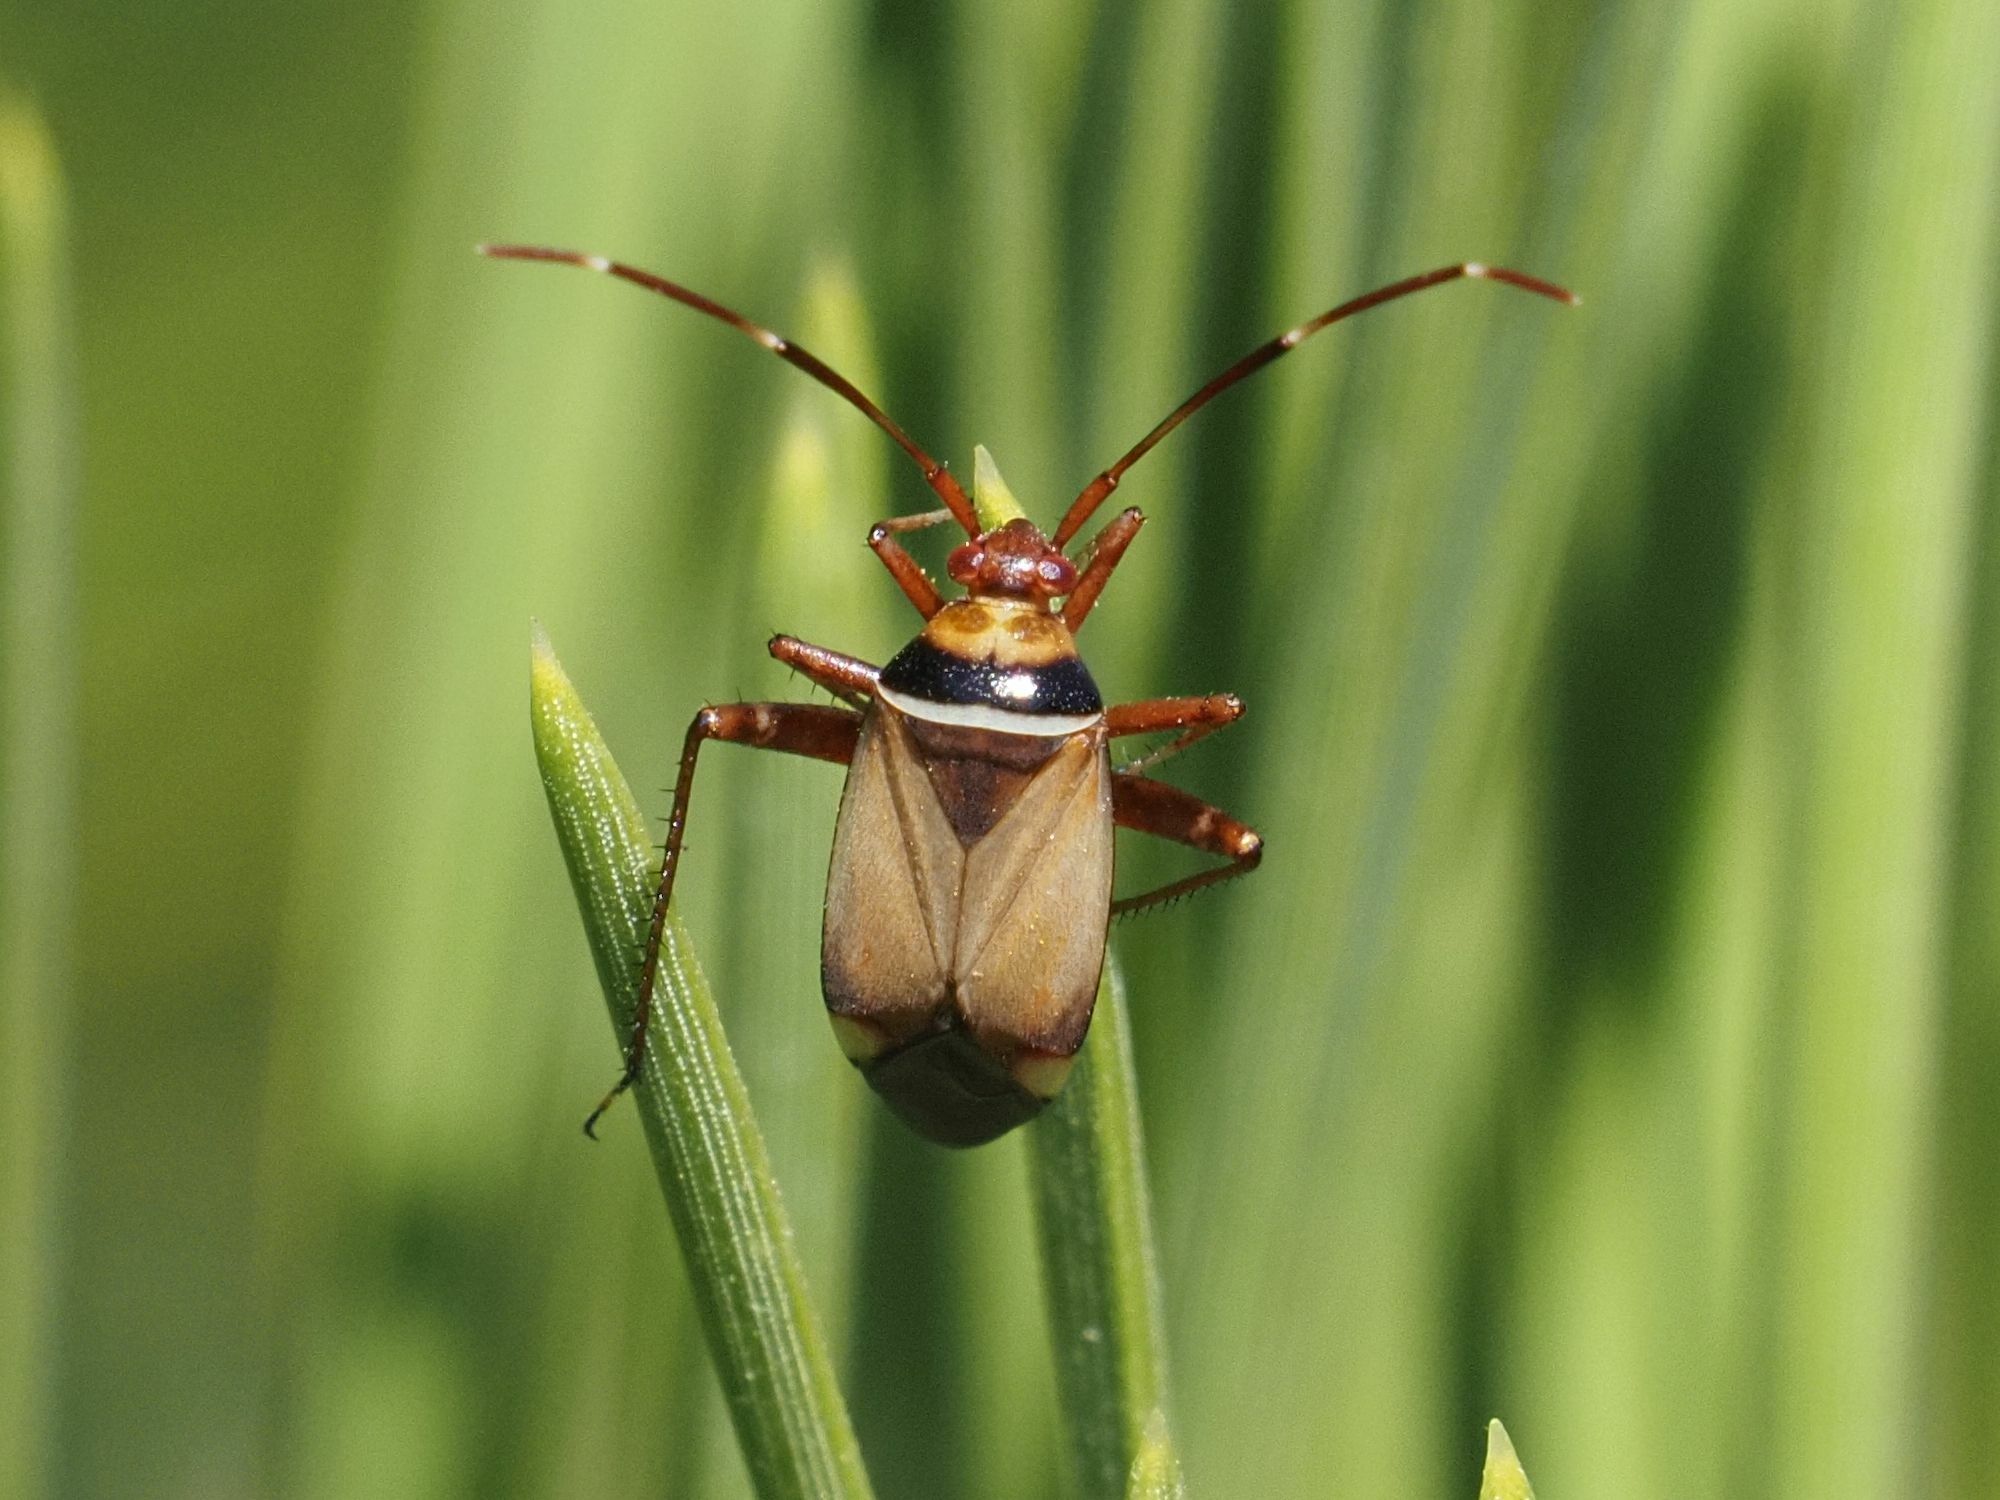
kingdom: Animalia
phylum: Arthropoda
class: Insecta
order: Hemiptera
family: Miridae
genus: Adelphocoris
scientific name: Adelphocoris vandalicus
